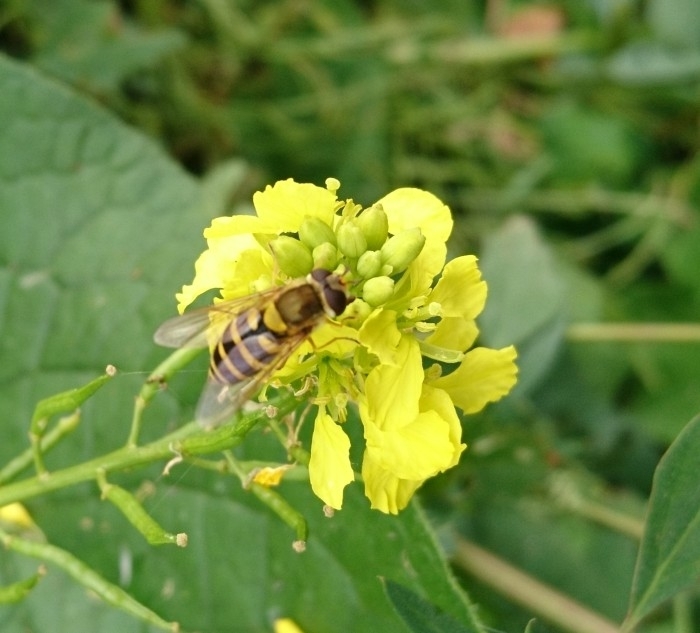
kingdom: Animalia
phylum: Arthropoda
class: Insecta
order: Diptera
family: Syrphidae
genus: Syrphus
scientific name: Syrphus
